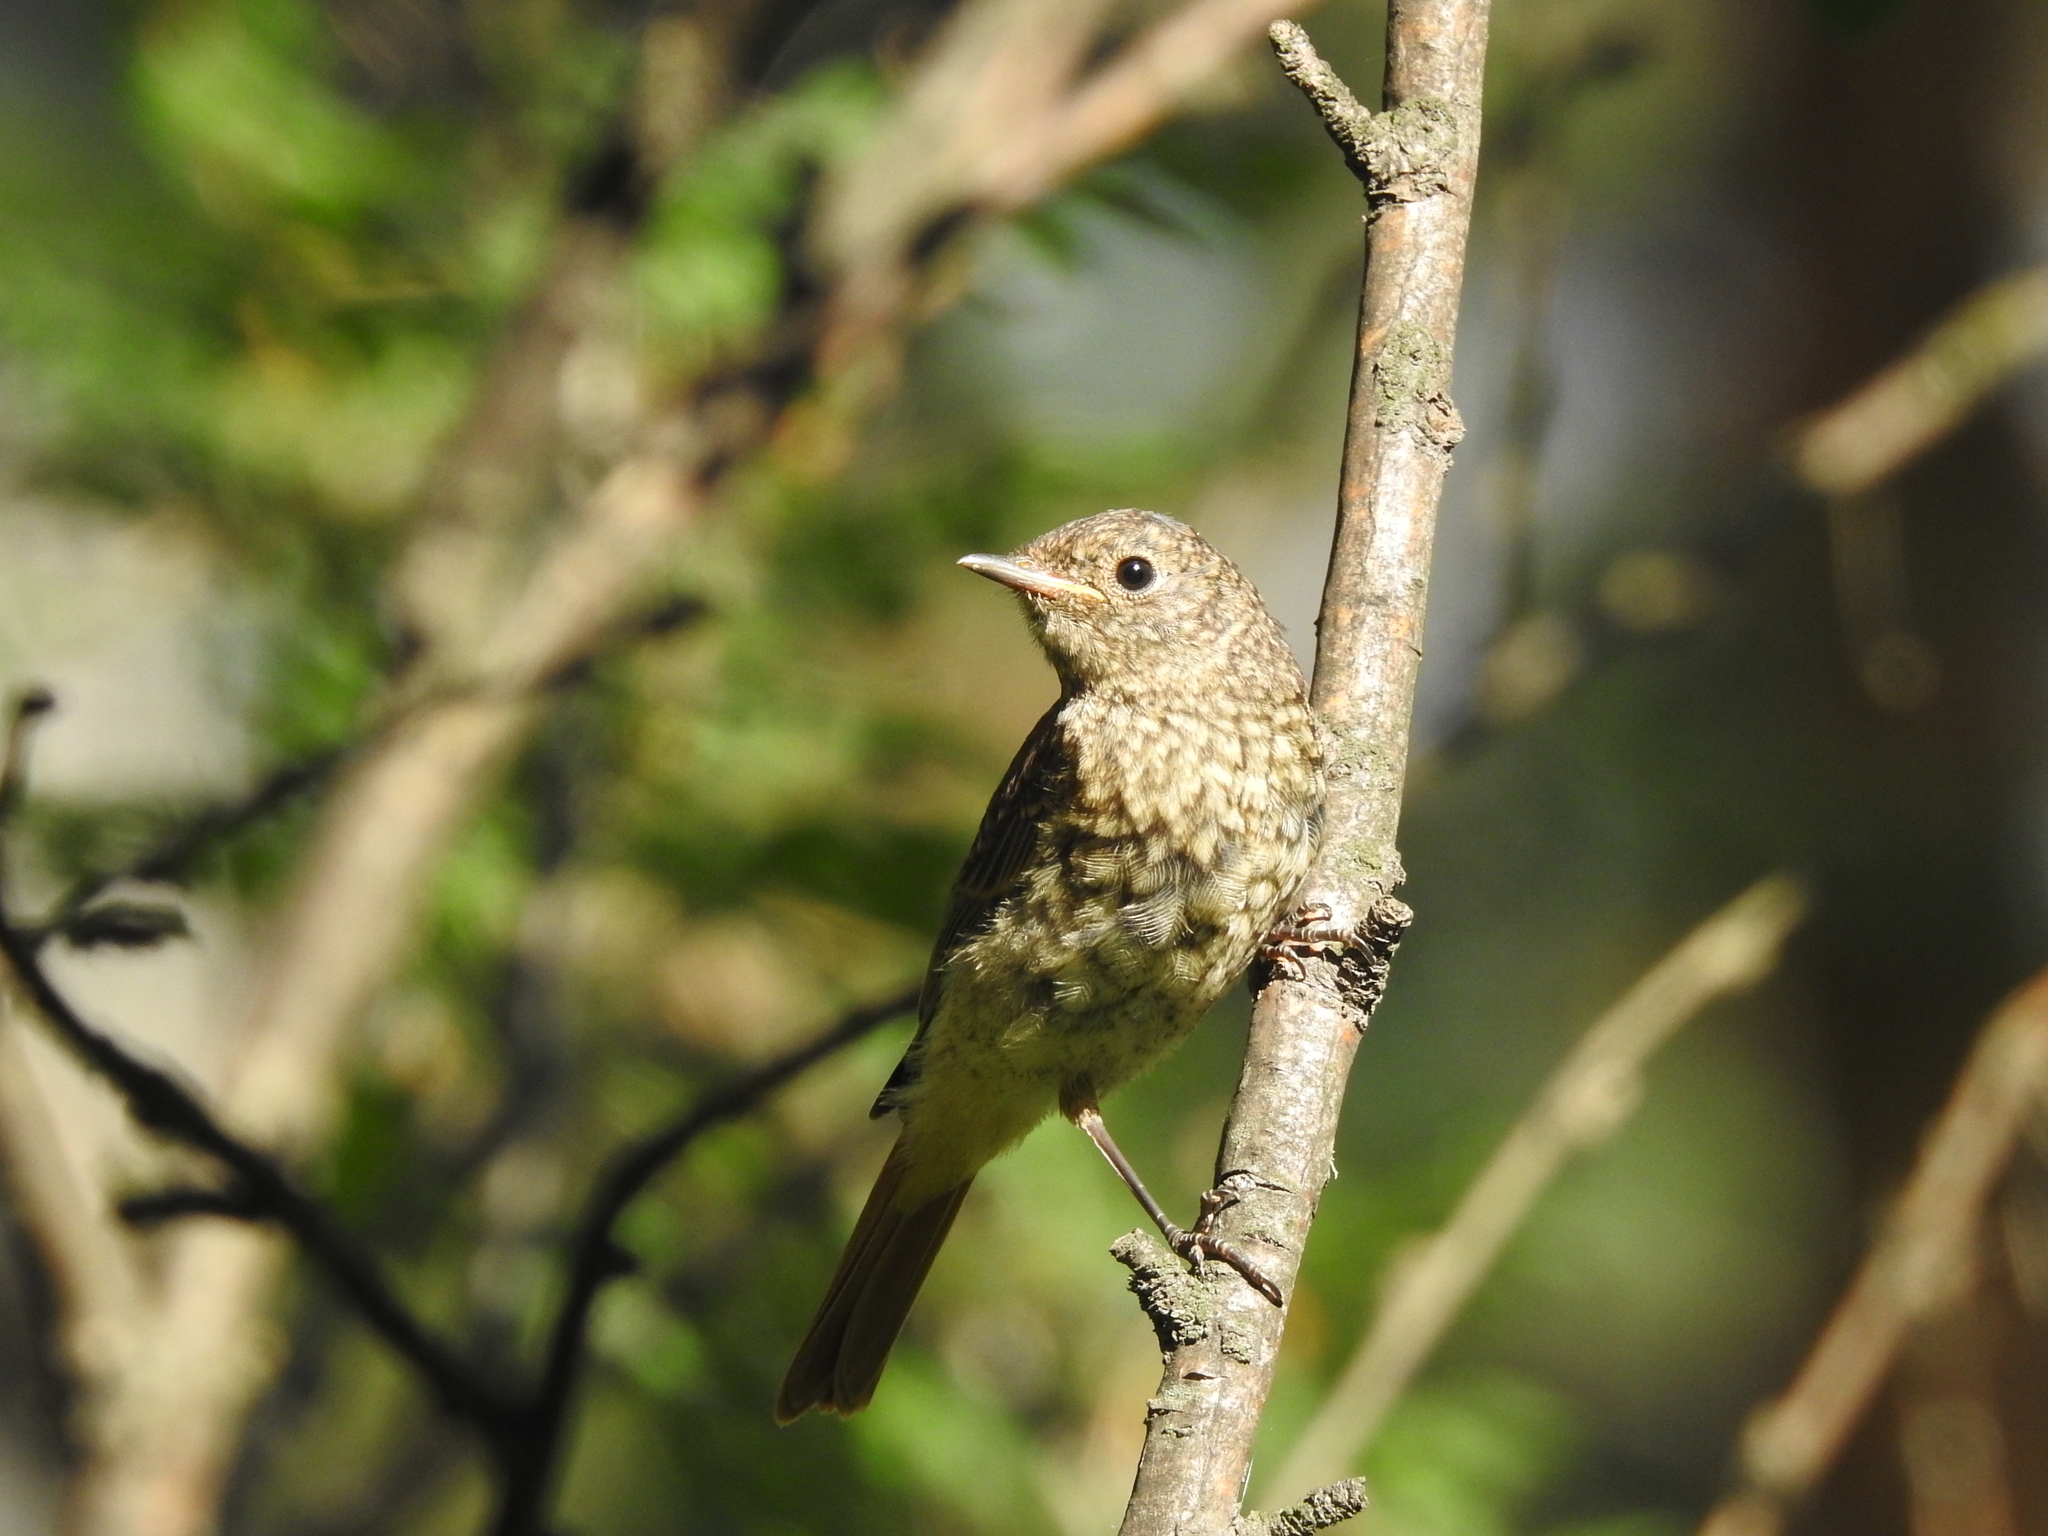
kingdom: Animalia
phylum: Chordata
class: Aves
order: Passeriformes
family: Muscicapidae
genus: Phoenicurus
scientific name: Phoenicurus phoenicurus
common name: Common redstart
